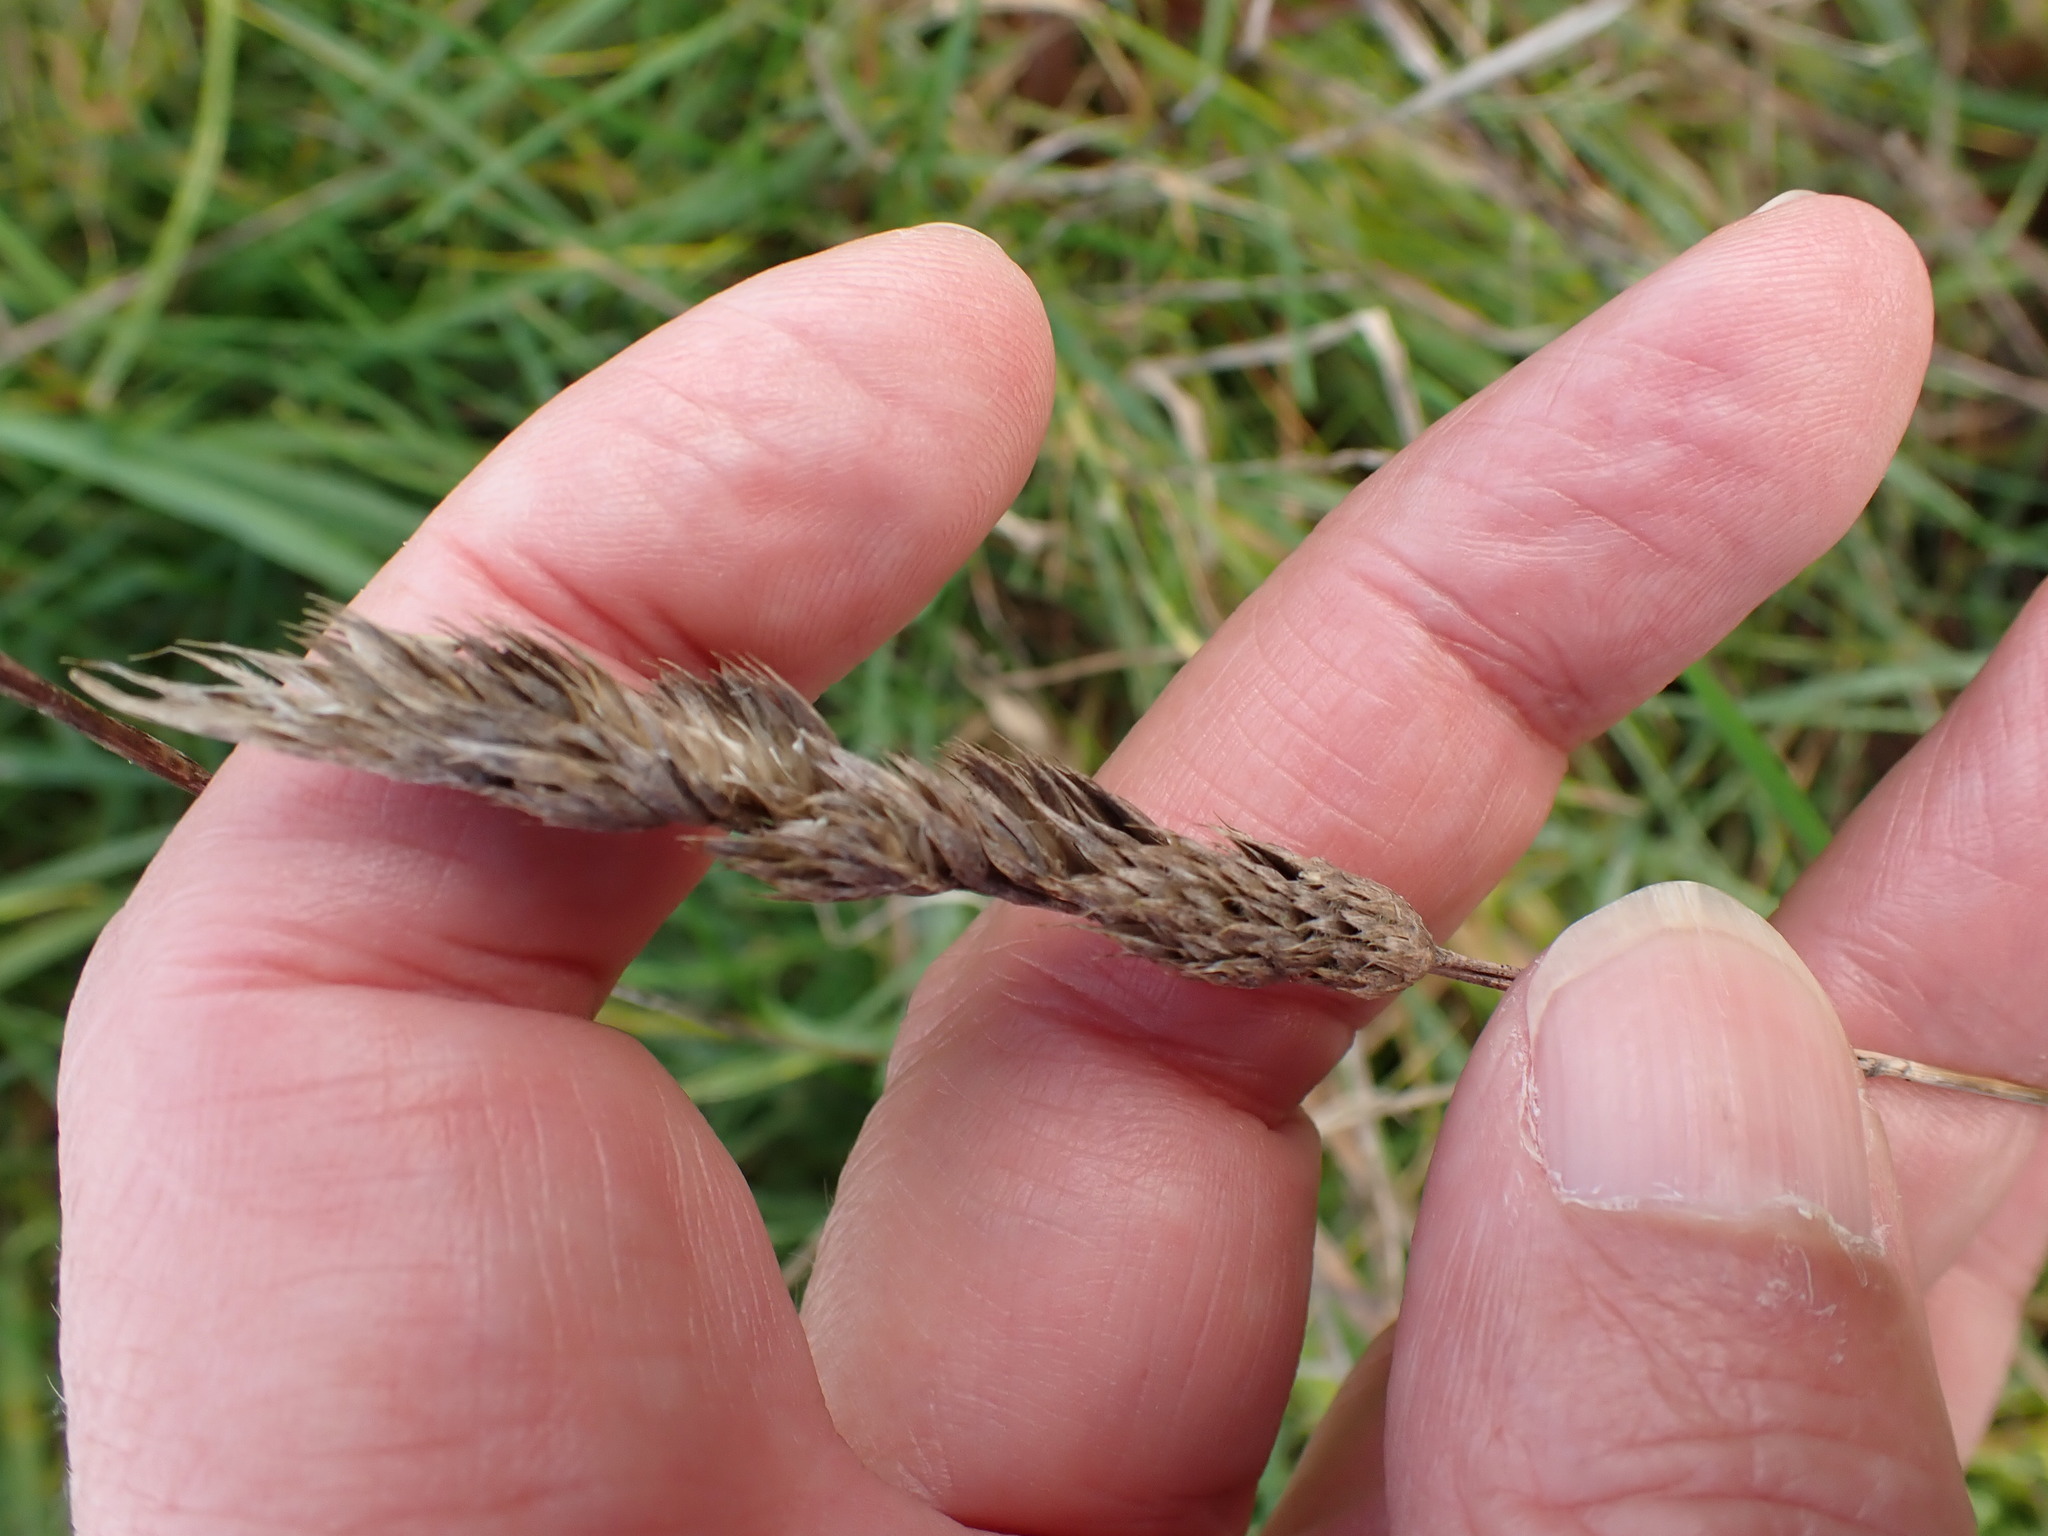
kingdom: Plantae
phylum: Tracheophyta
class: Liliopsida
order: Poales
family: Poaceae
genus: Dactylis
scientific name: Dactylis glomerata
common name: Orchardgrass
